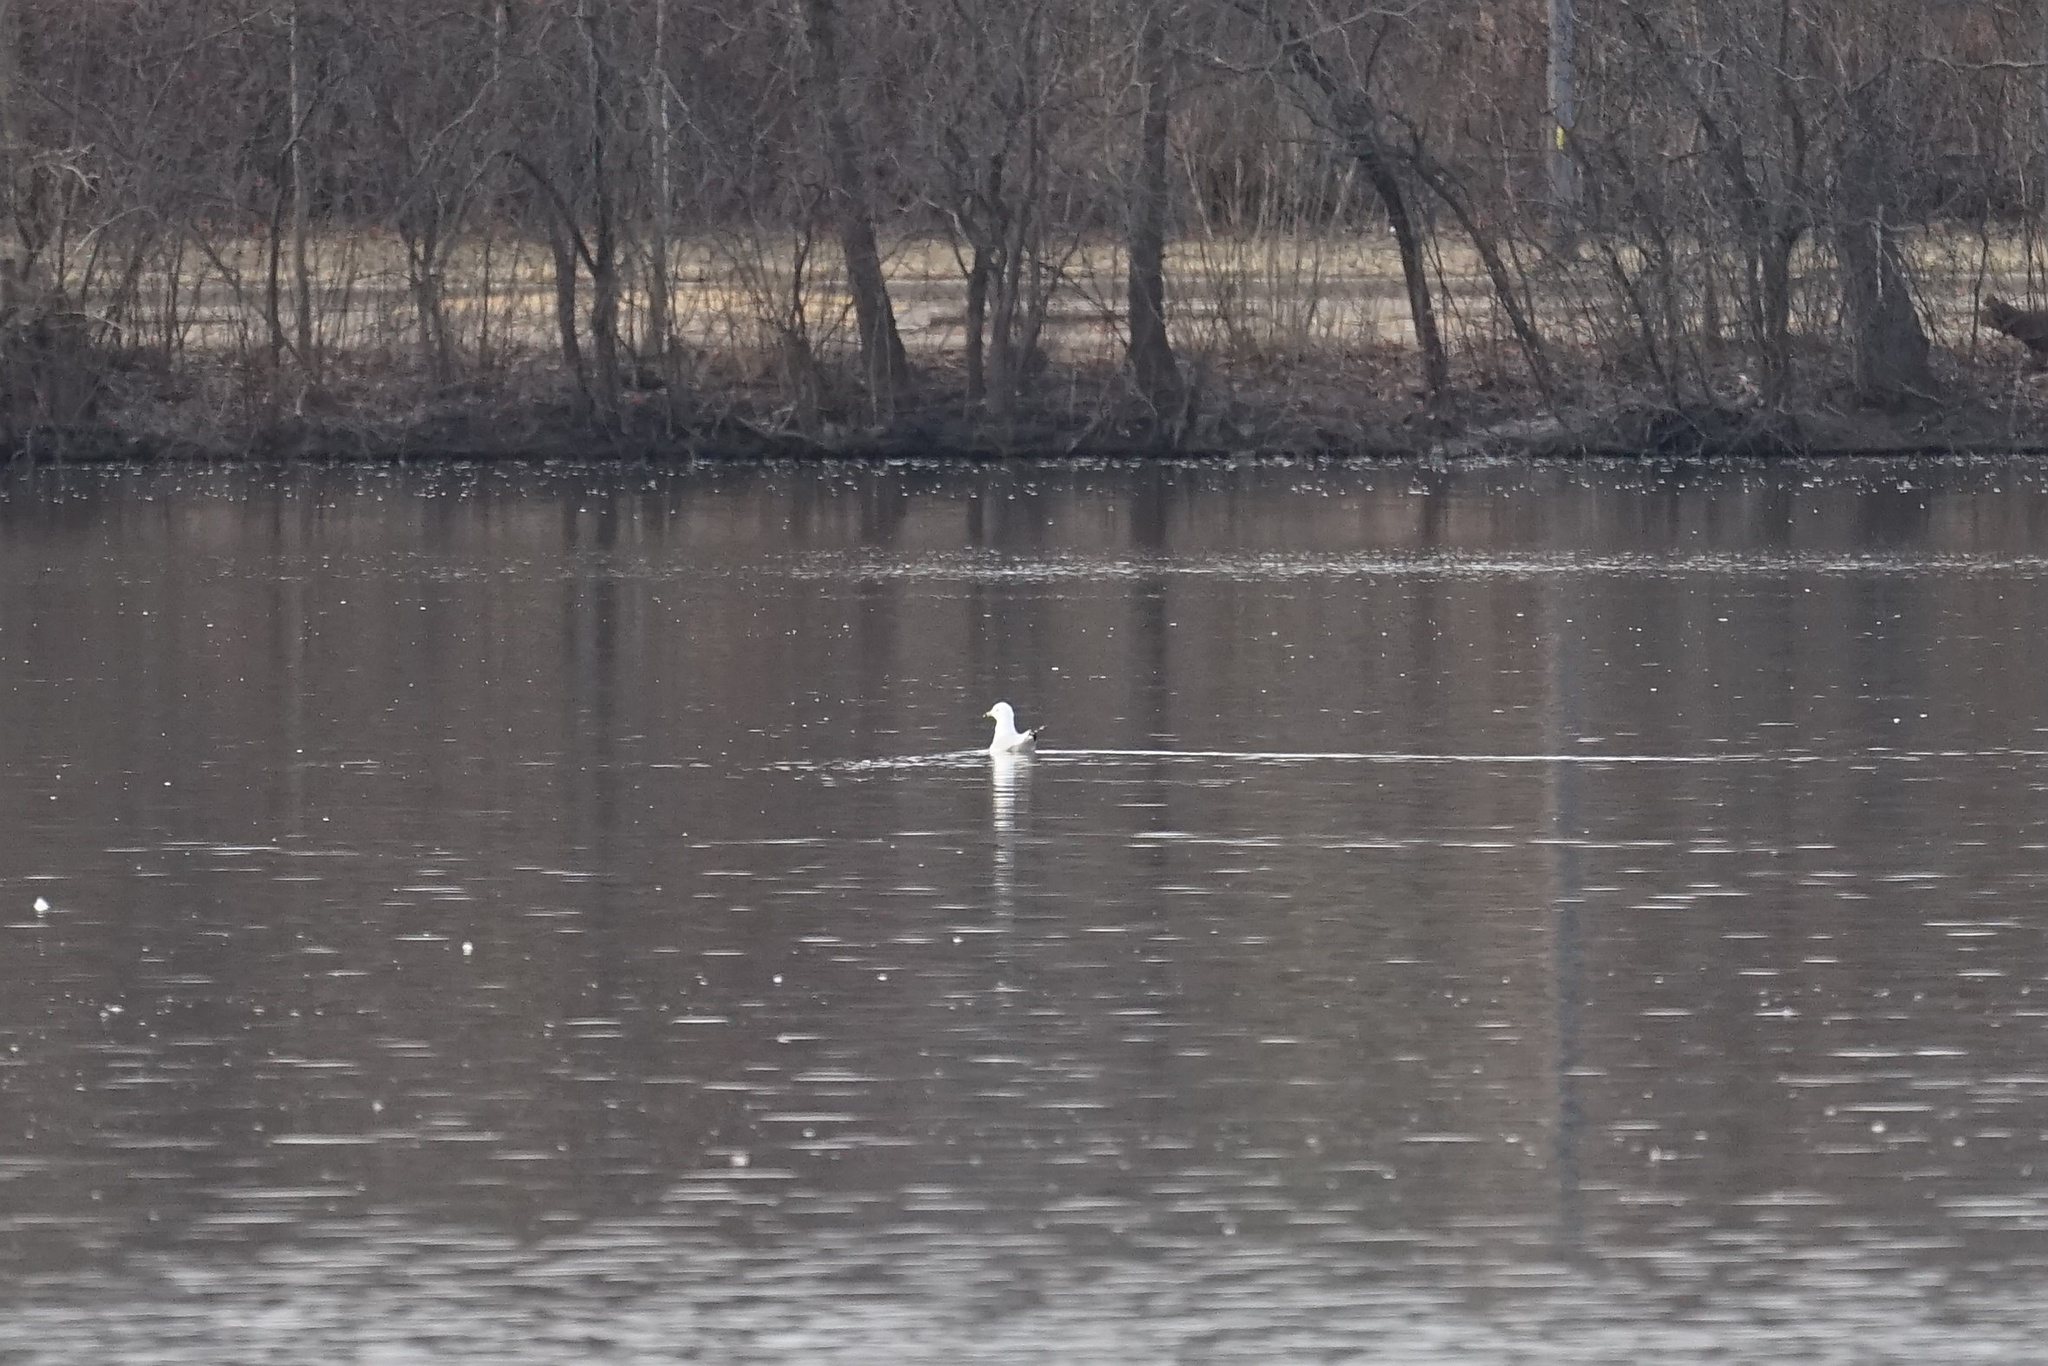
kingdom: Animalia
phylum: Chordata
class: Aves
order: Charadriiformes
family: Laridae
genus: Larus
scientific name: Larus delawarensis
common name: Ring-billed gull
